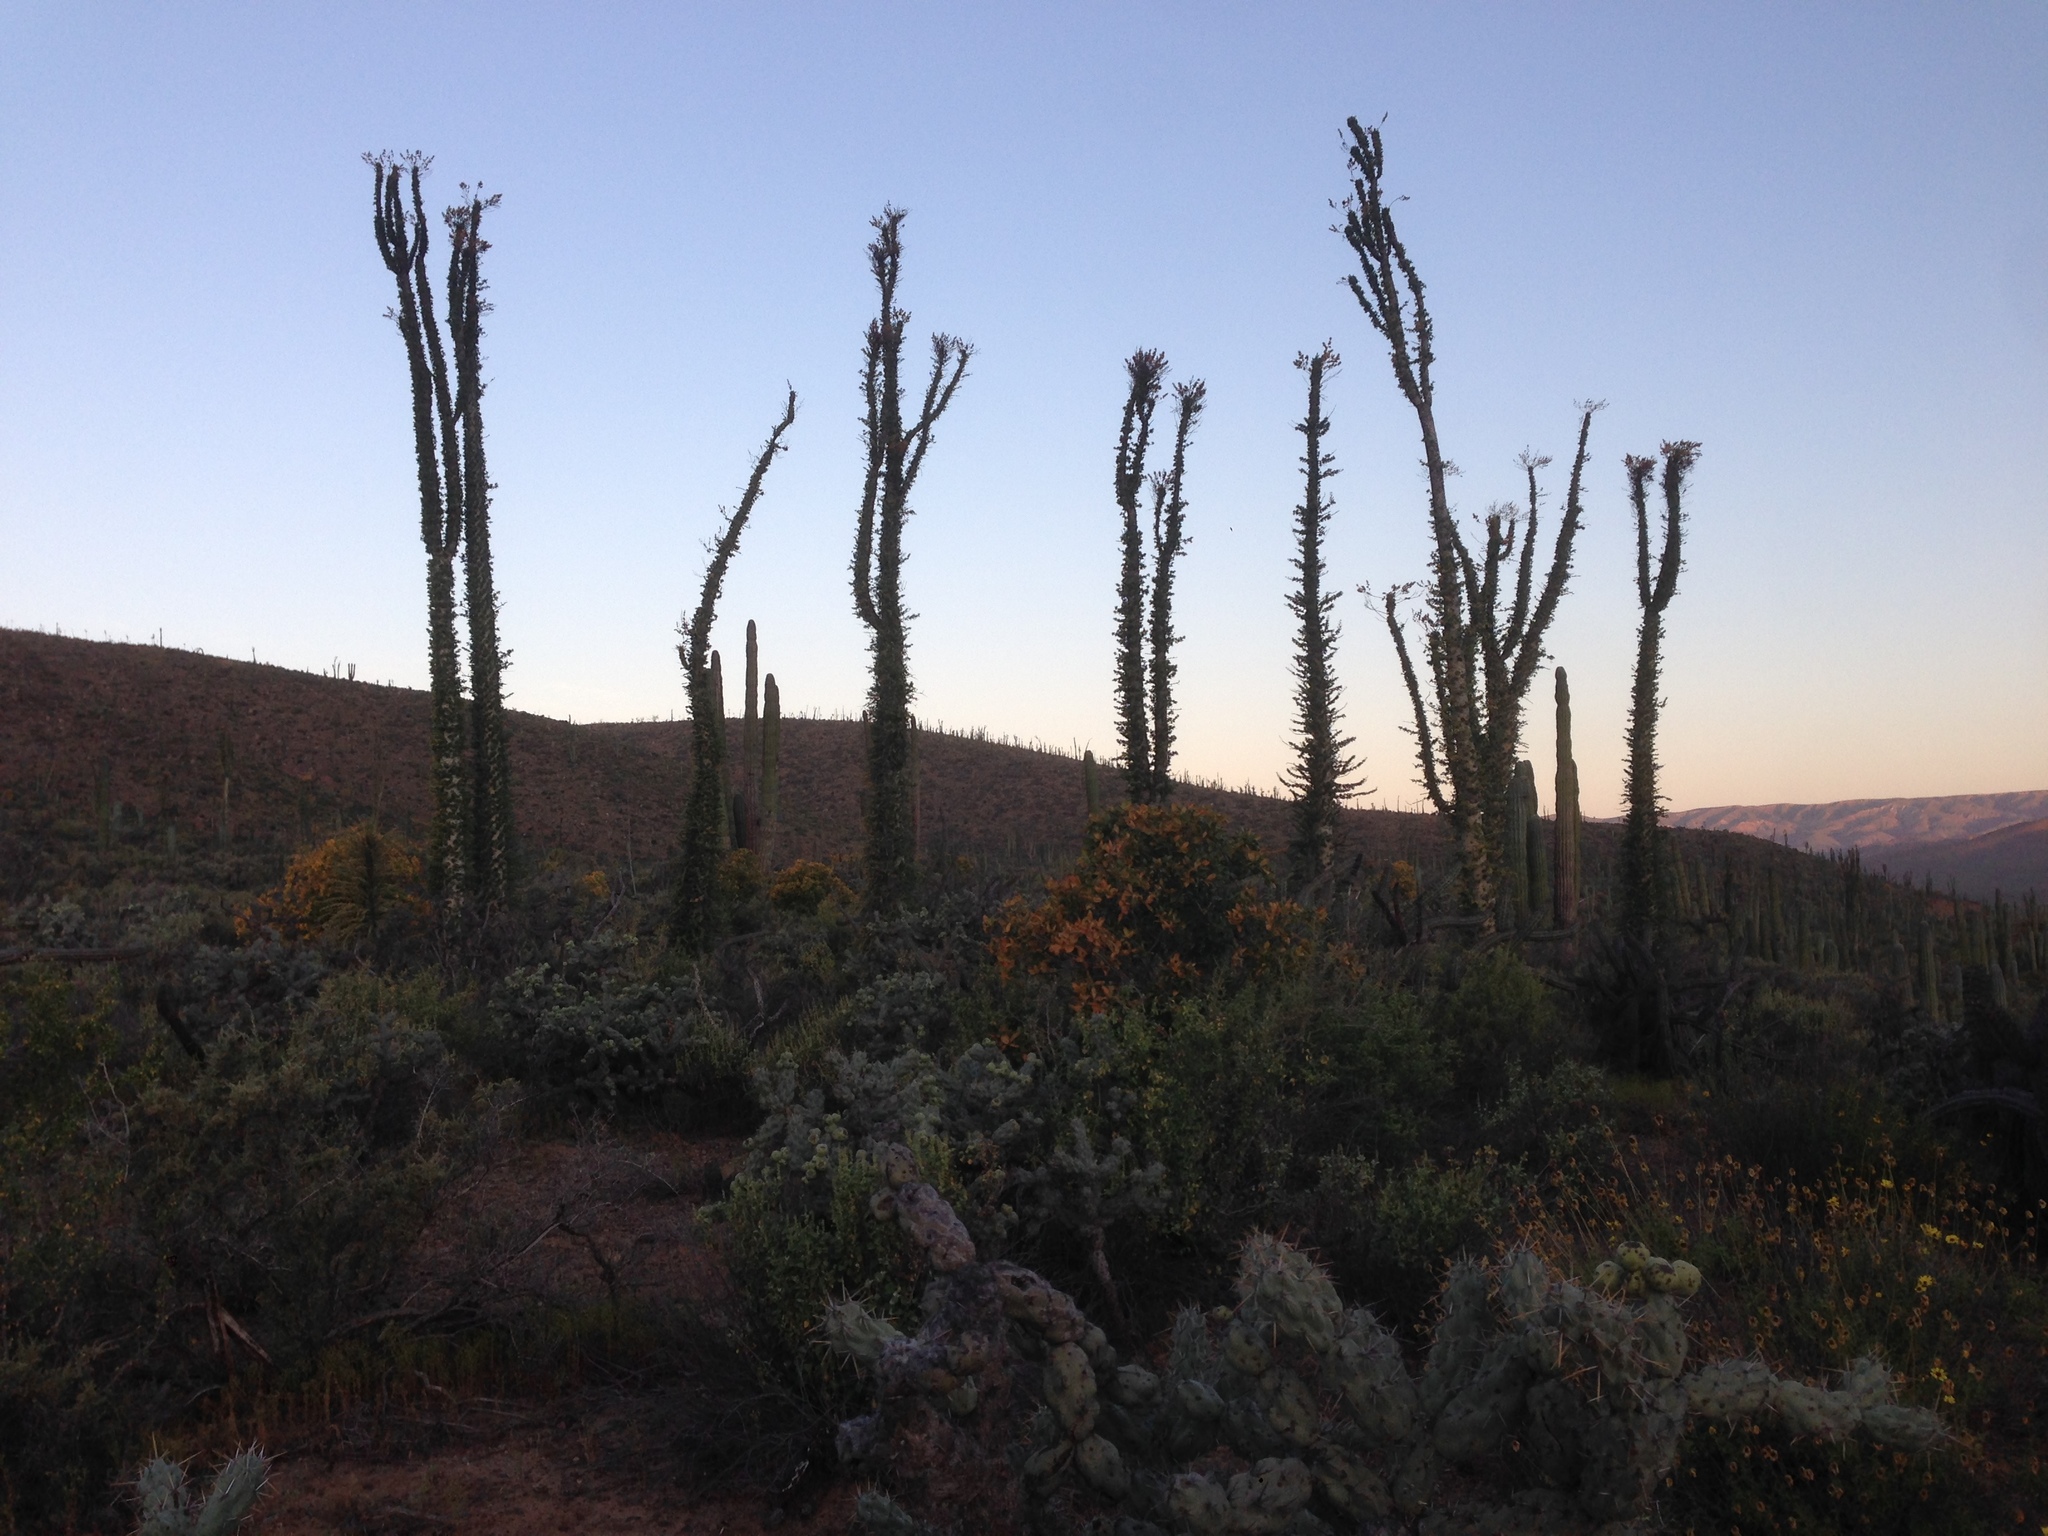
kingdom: Plantae
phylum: Tracheophyta
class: Magnoliopsida
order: Ericales
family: Fouquieriaceae
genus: Fouquieria
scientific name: Fouquieria columnaris
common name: Boojumtree
